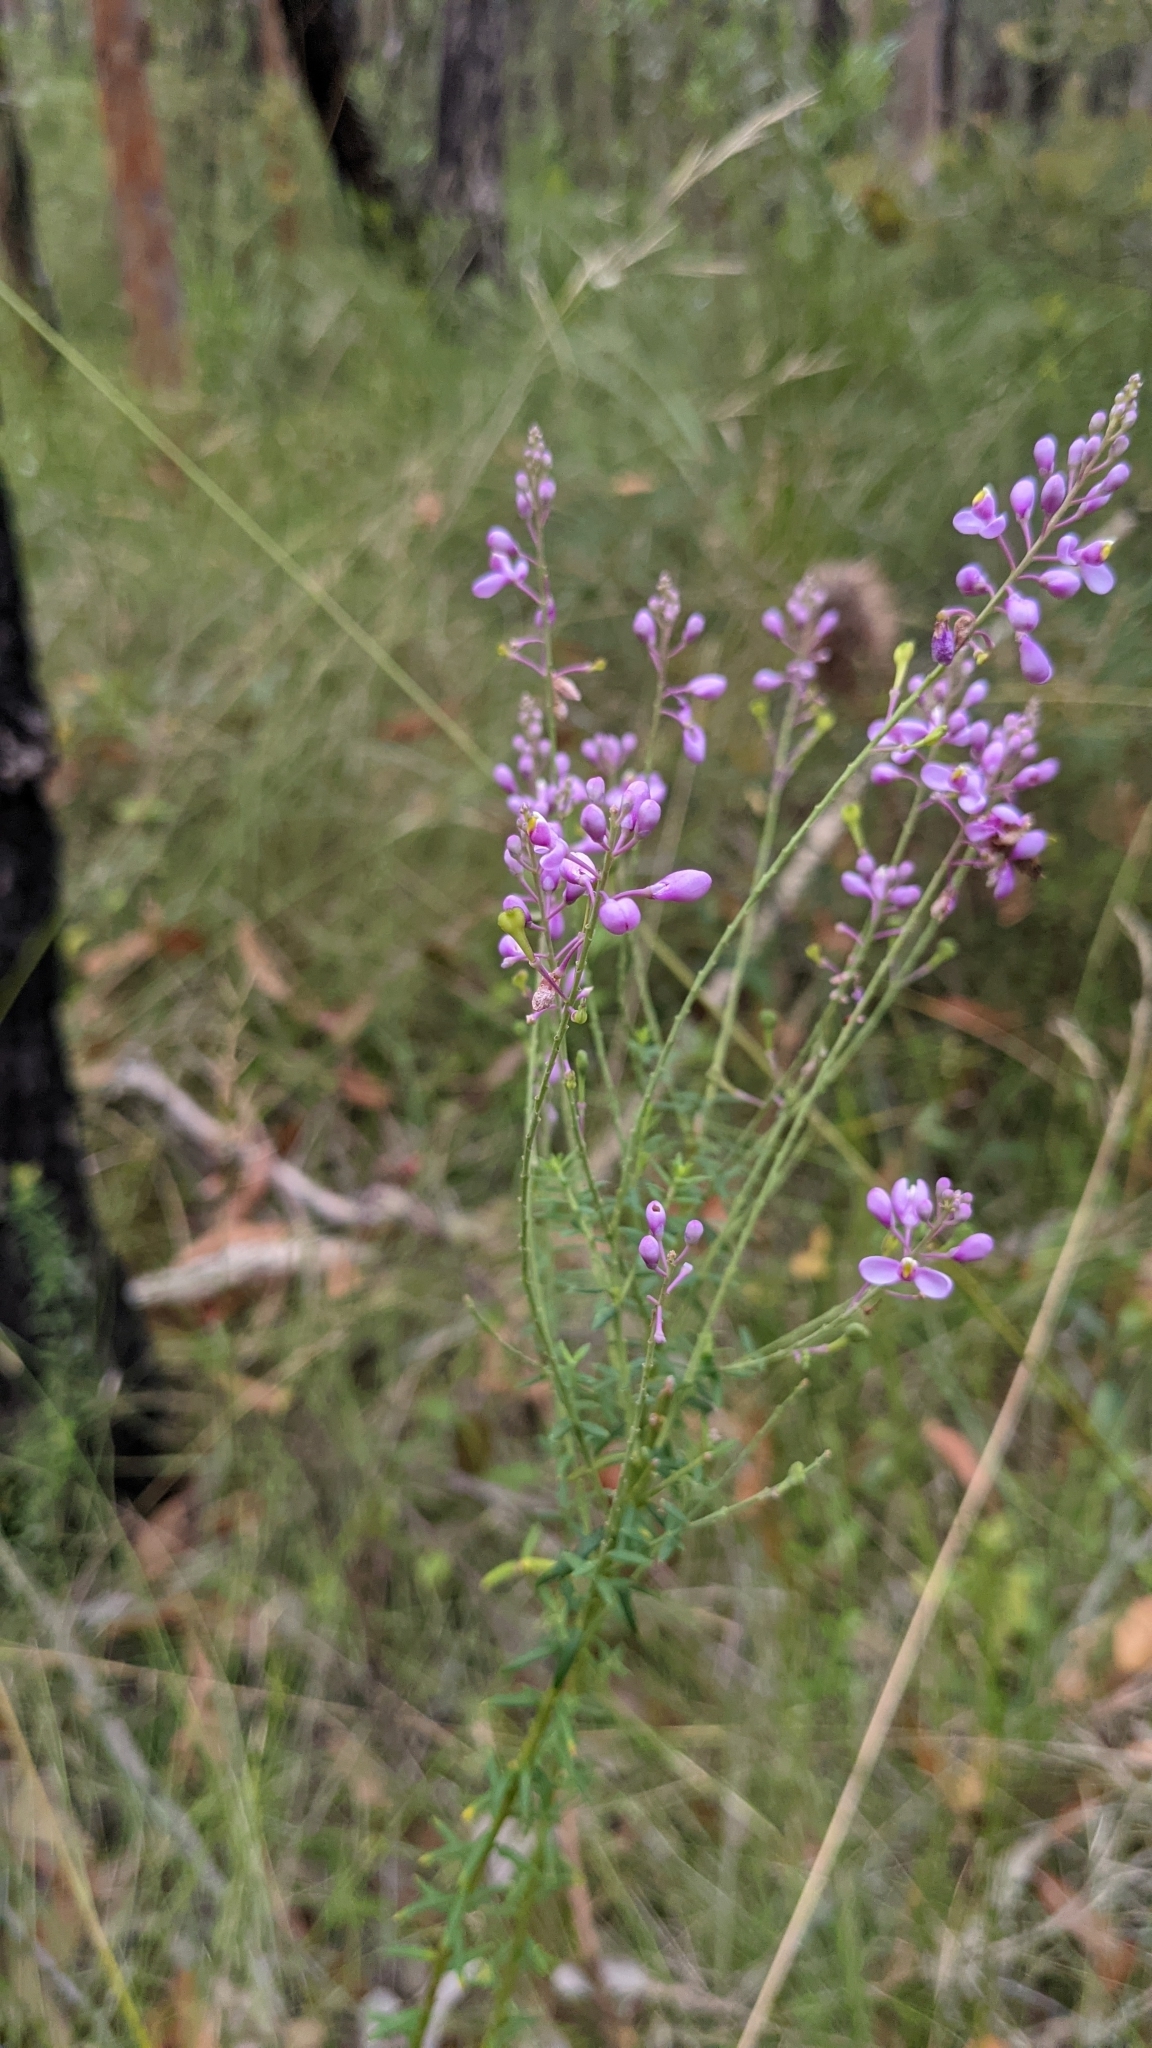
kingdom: Plantae
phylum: Tracheophyta
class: Magnoliopsida
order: Fabales
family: Polygalaceae
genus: Comesperma
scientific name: Comesperma ericinum
